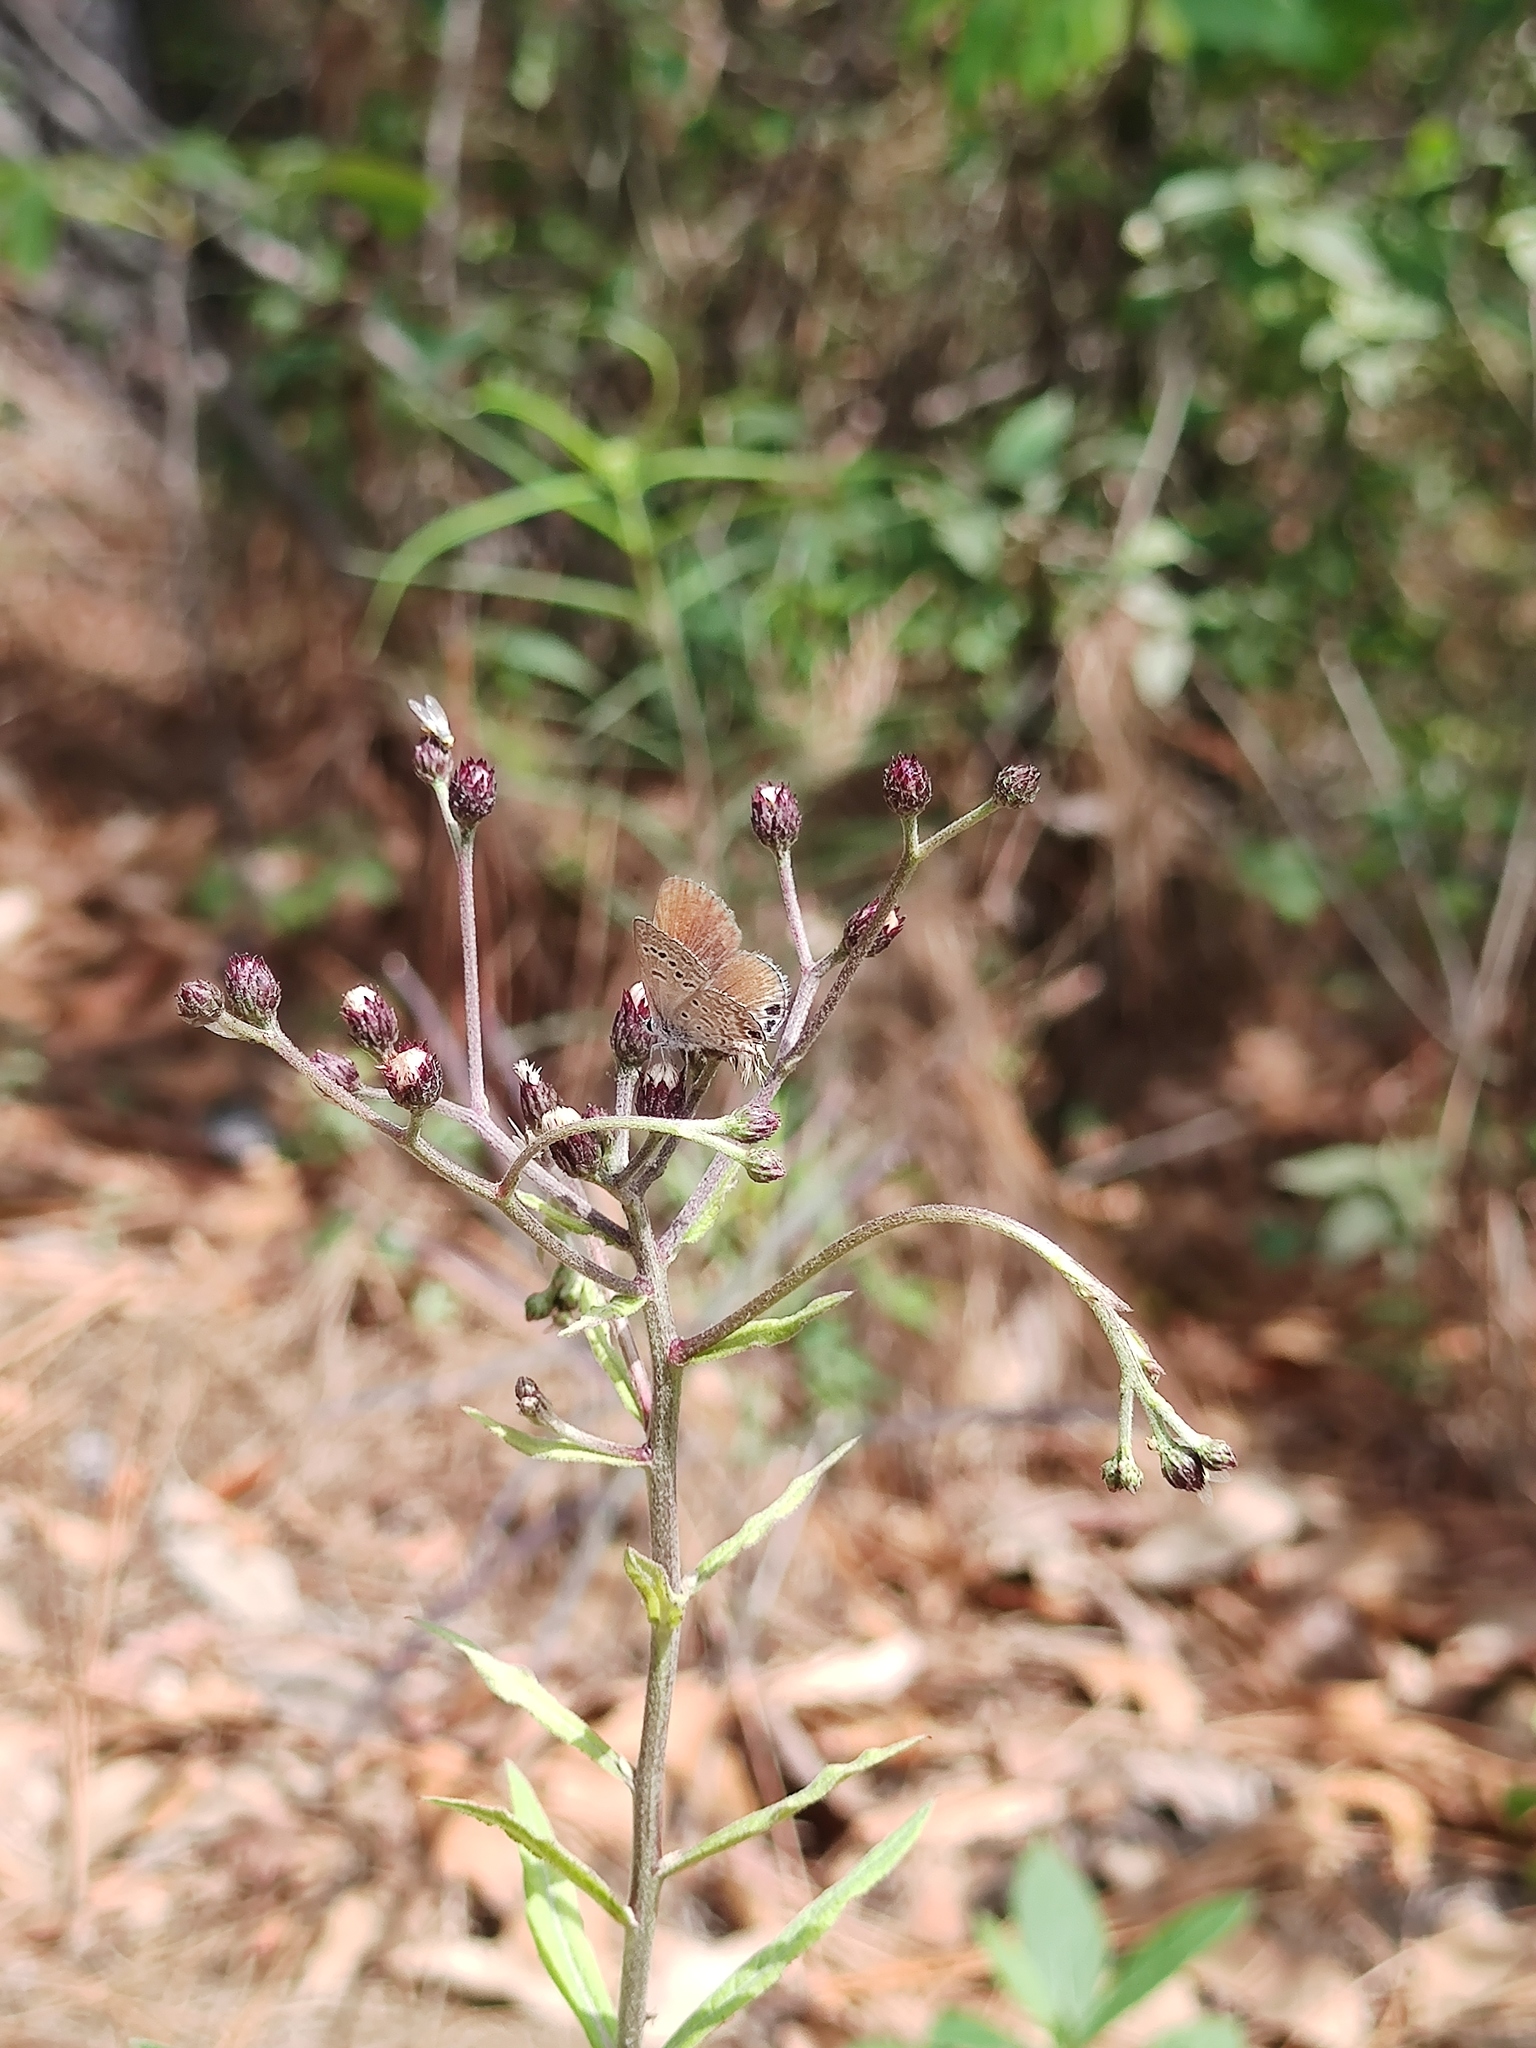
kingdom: Animalia
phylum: Arthropoda
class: Insecta
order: Lepidoptera
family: Lycaenidae
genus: Echinargus
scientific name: Echinargus isola
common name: Reakirt's blue
